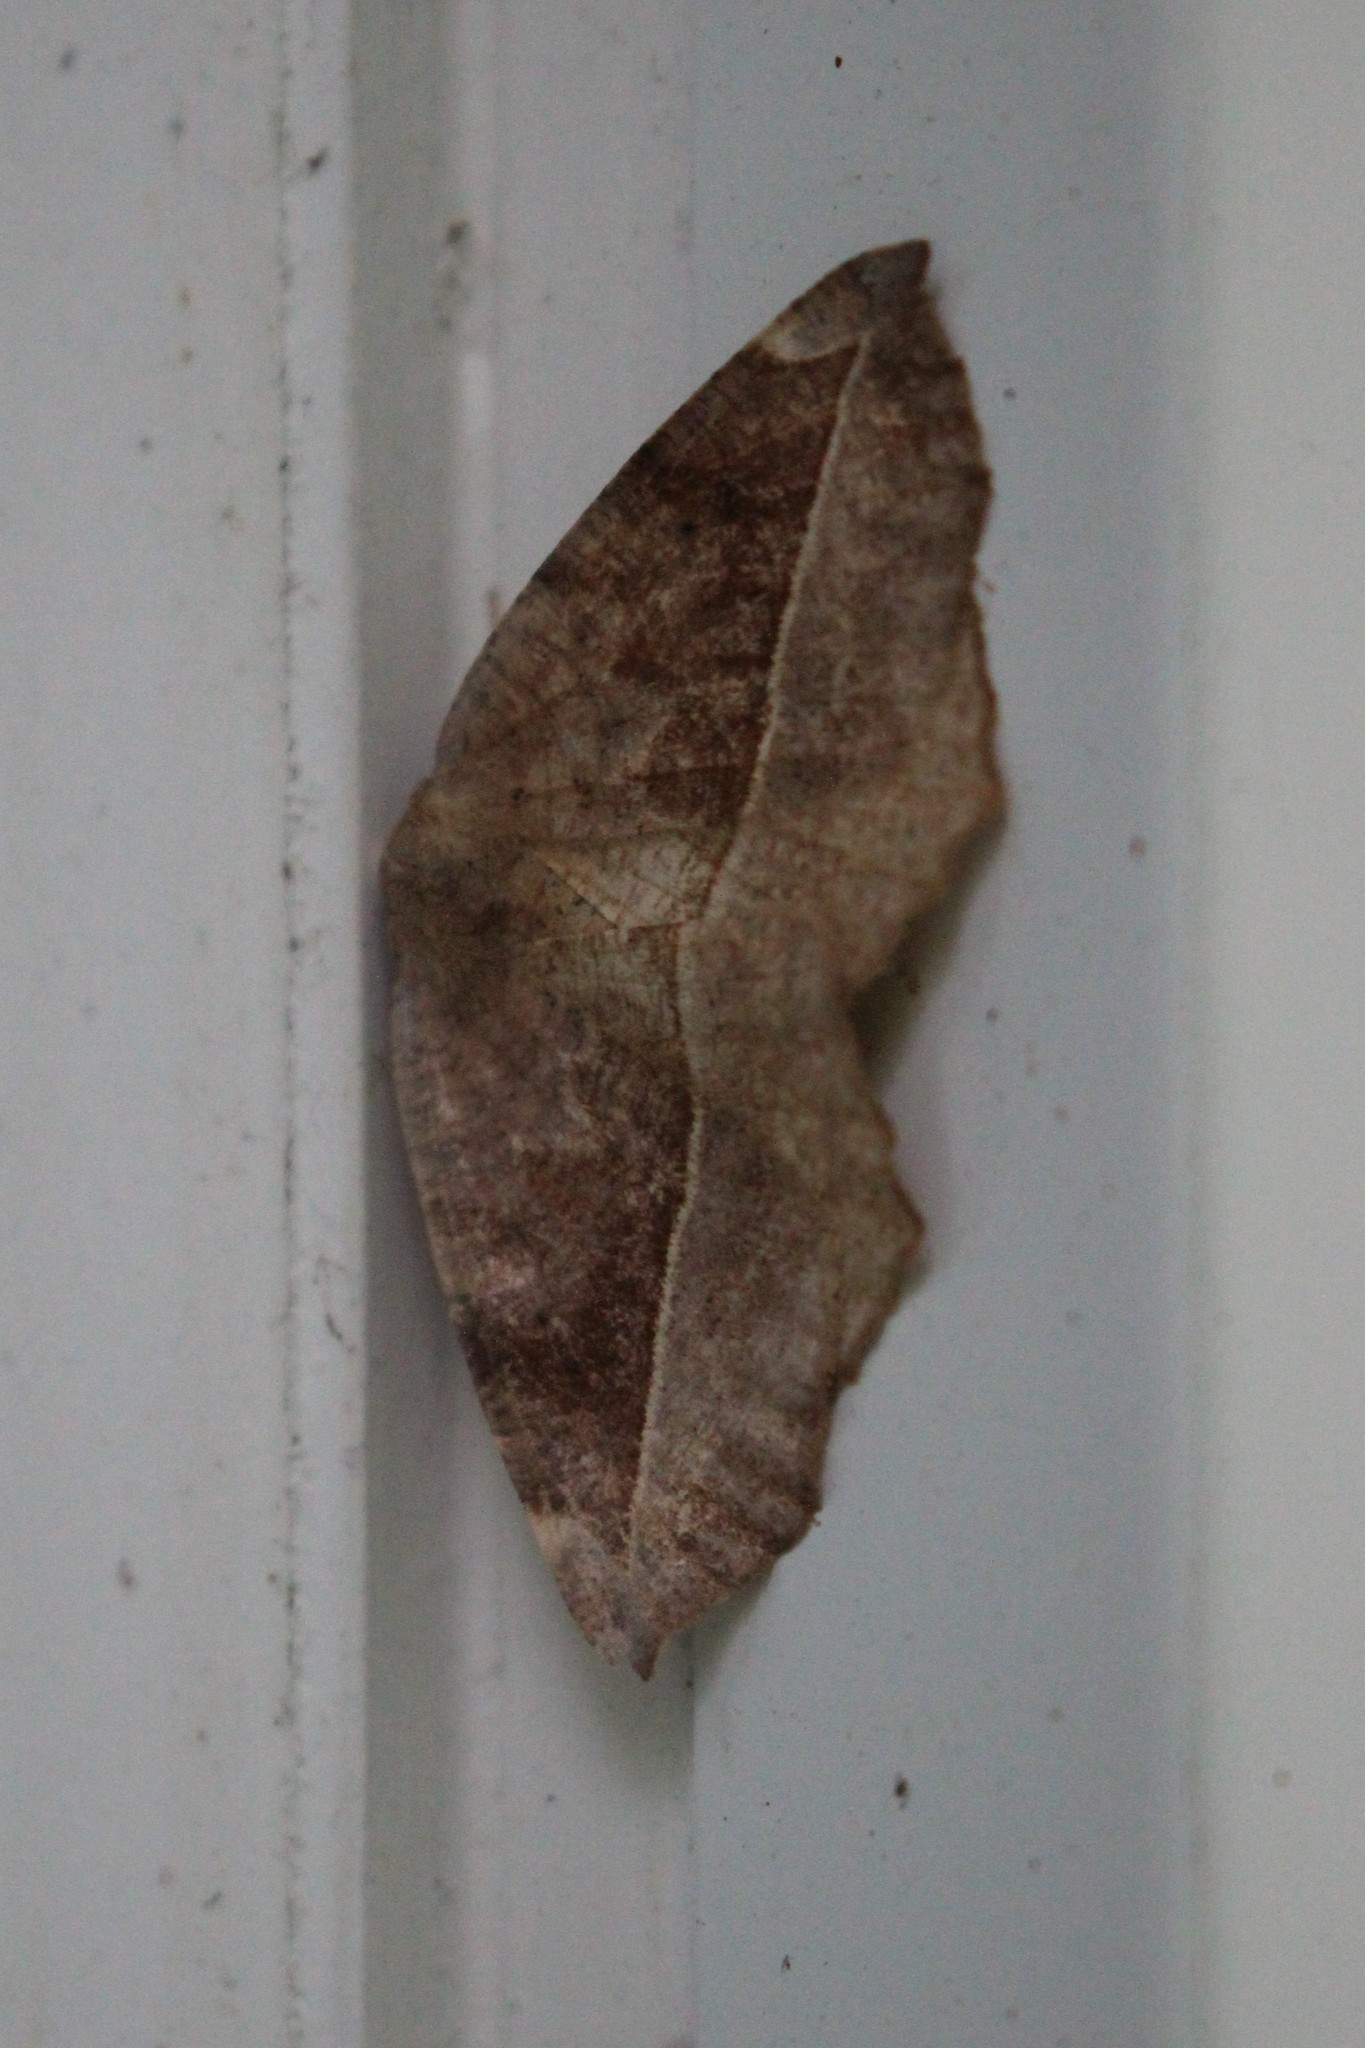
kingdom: Animalia
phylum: Arthropoda
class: Insecta
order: Lepidoptera
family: Geometridae
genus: Eutrapela
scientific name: Eutrapela clemataria
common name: Curved-toothed geometer
